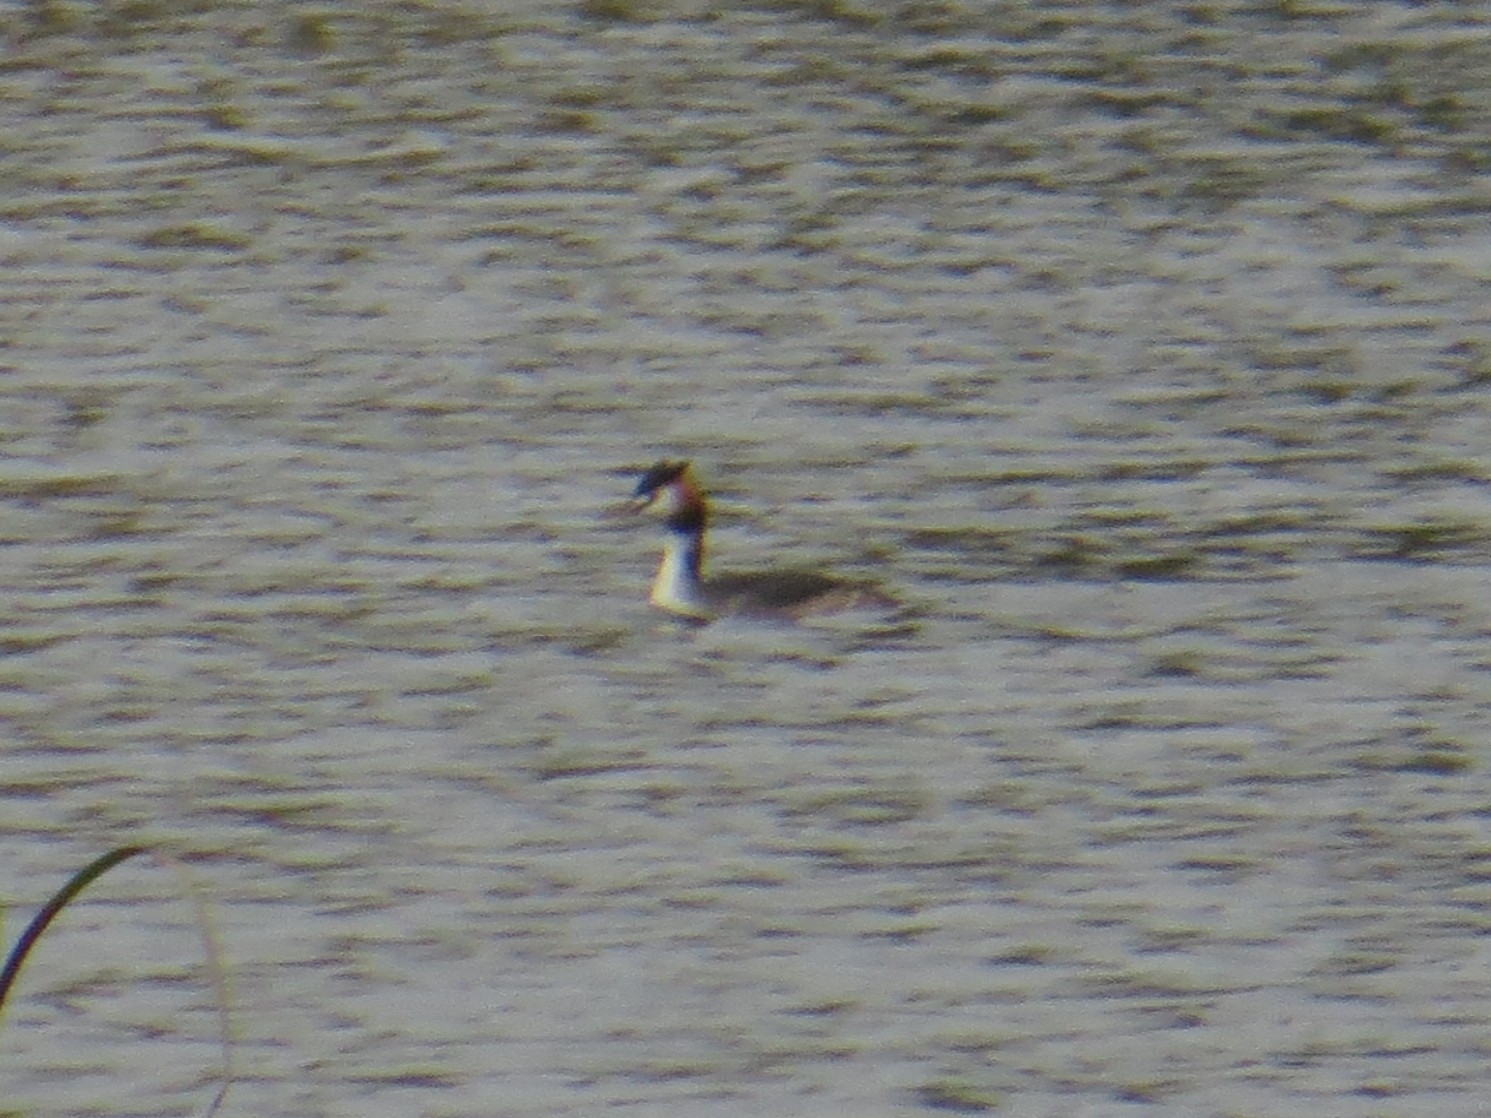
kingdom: Animalia
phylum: Chordata
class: Aves
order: Podicipediformes
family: Podicipedidae
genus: Podiceps
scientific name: Podiceps cristatus
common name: Great crested grebe
